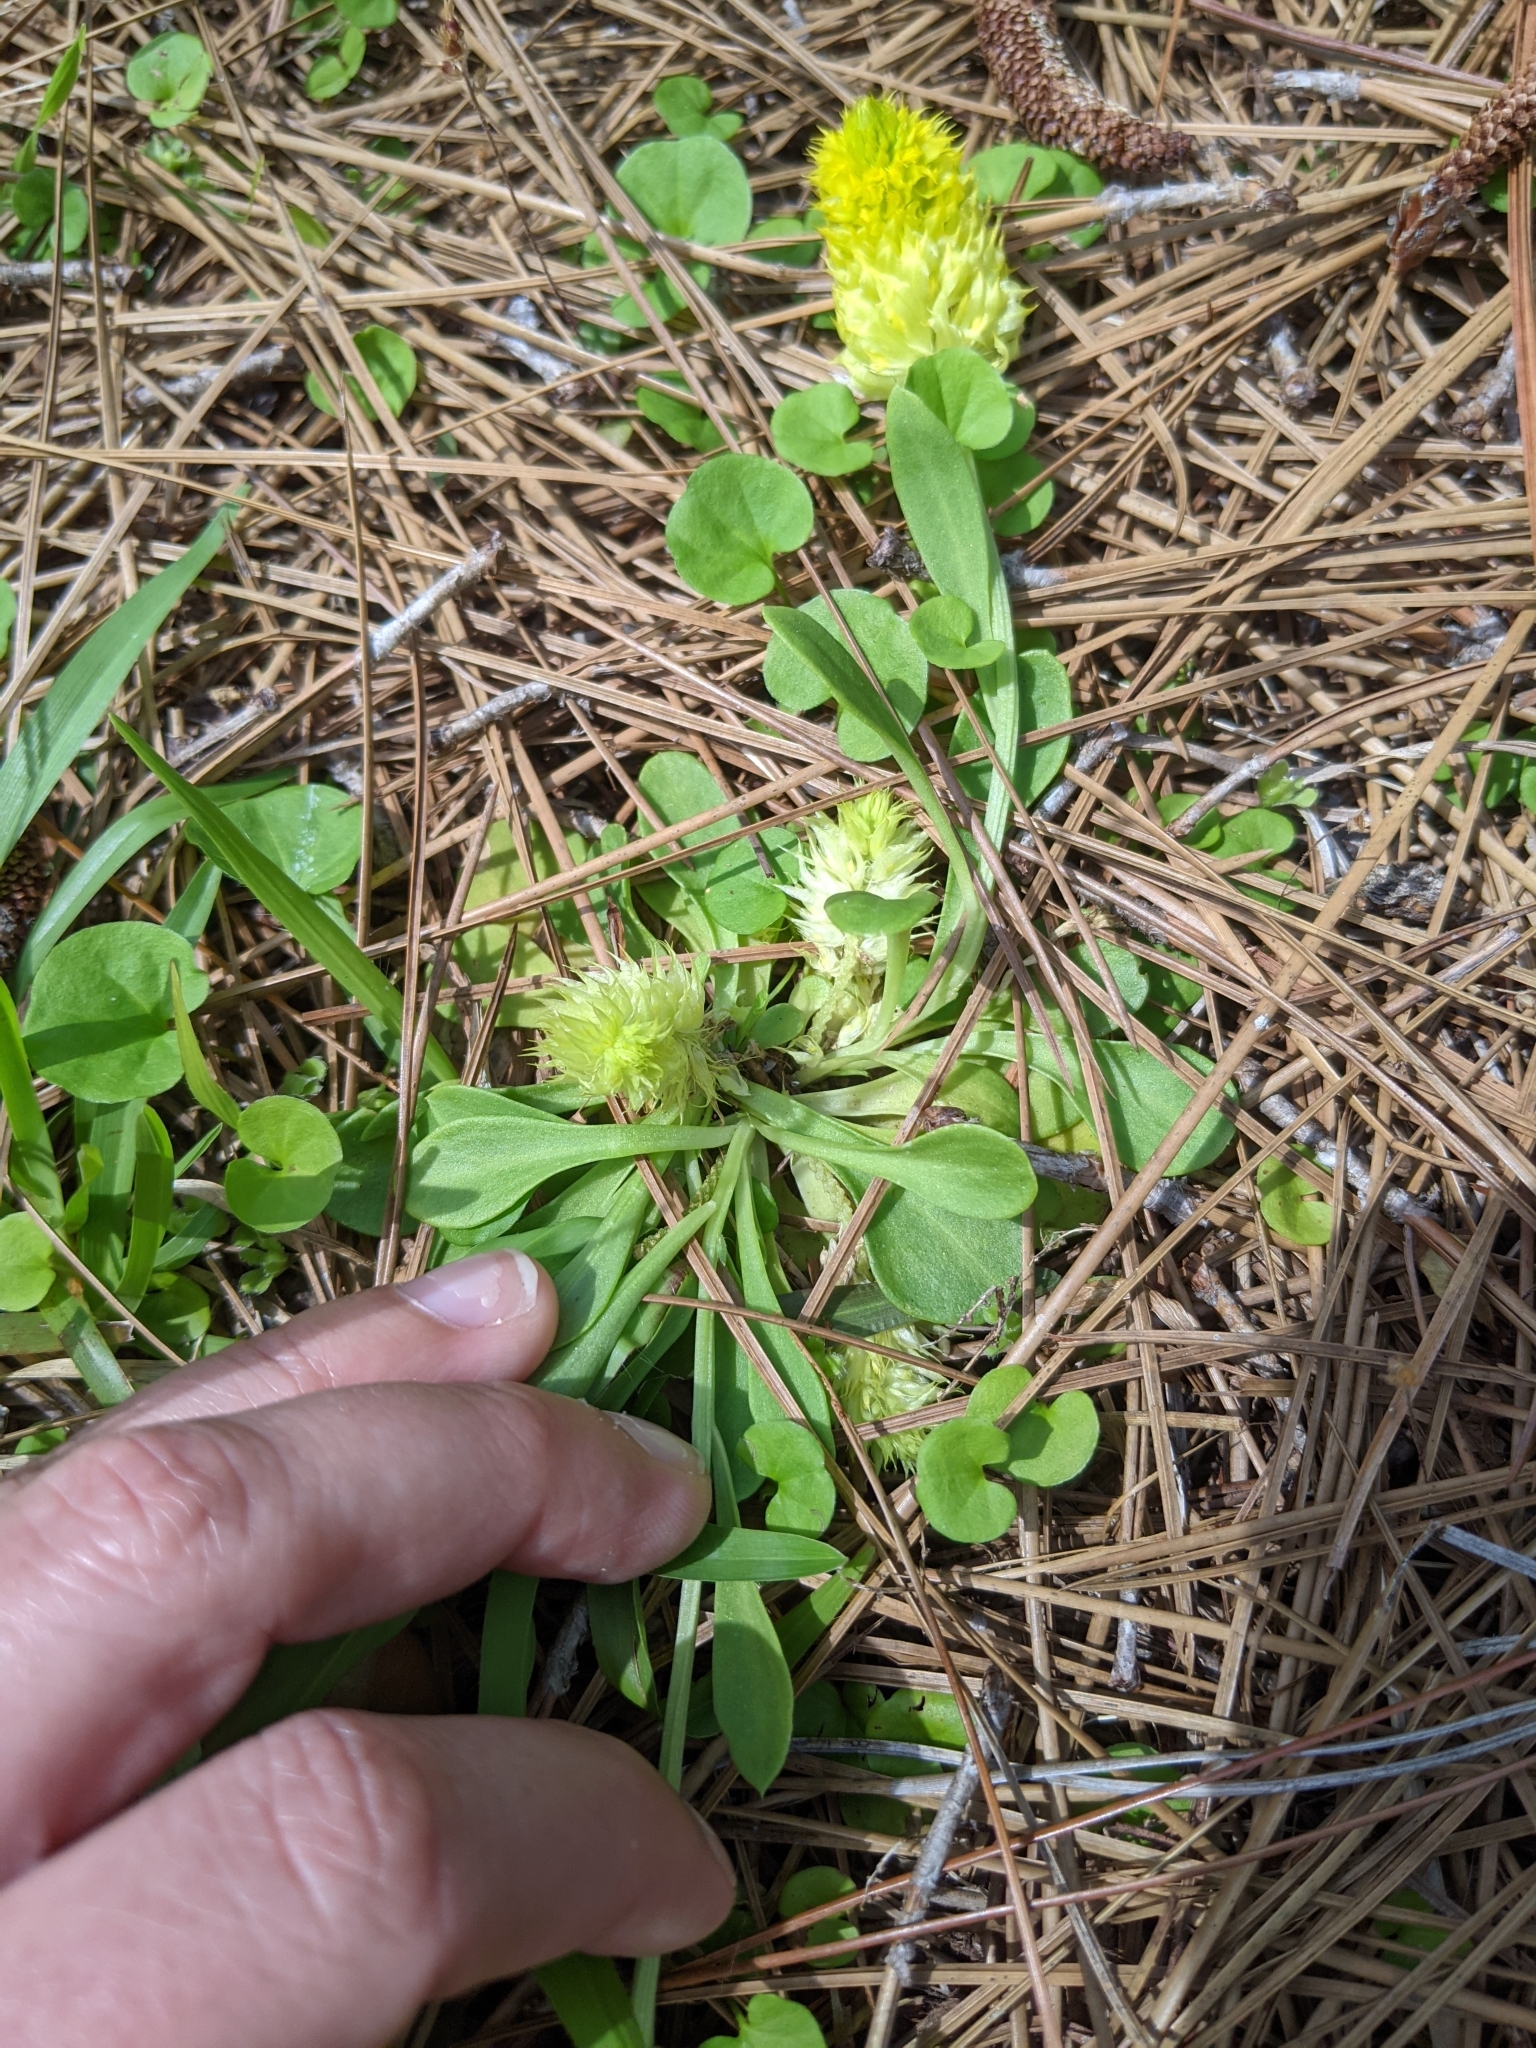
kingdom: Plantae
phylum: Tracheophyta
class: Magnoliopsida
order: Fabales
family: Polygalaceae
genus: Polygala
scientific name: Polygala nana
